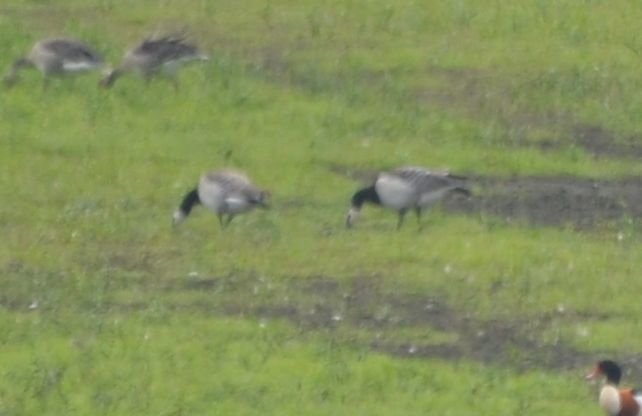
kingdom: Animalia
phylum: Chordata
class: Aves
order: Anseriformes
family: Anatidae
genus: Branta
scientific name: Branta leucopsis
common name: Barnacle goose
